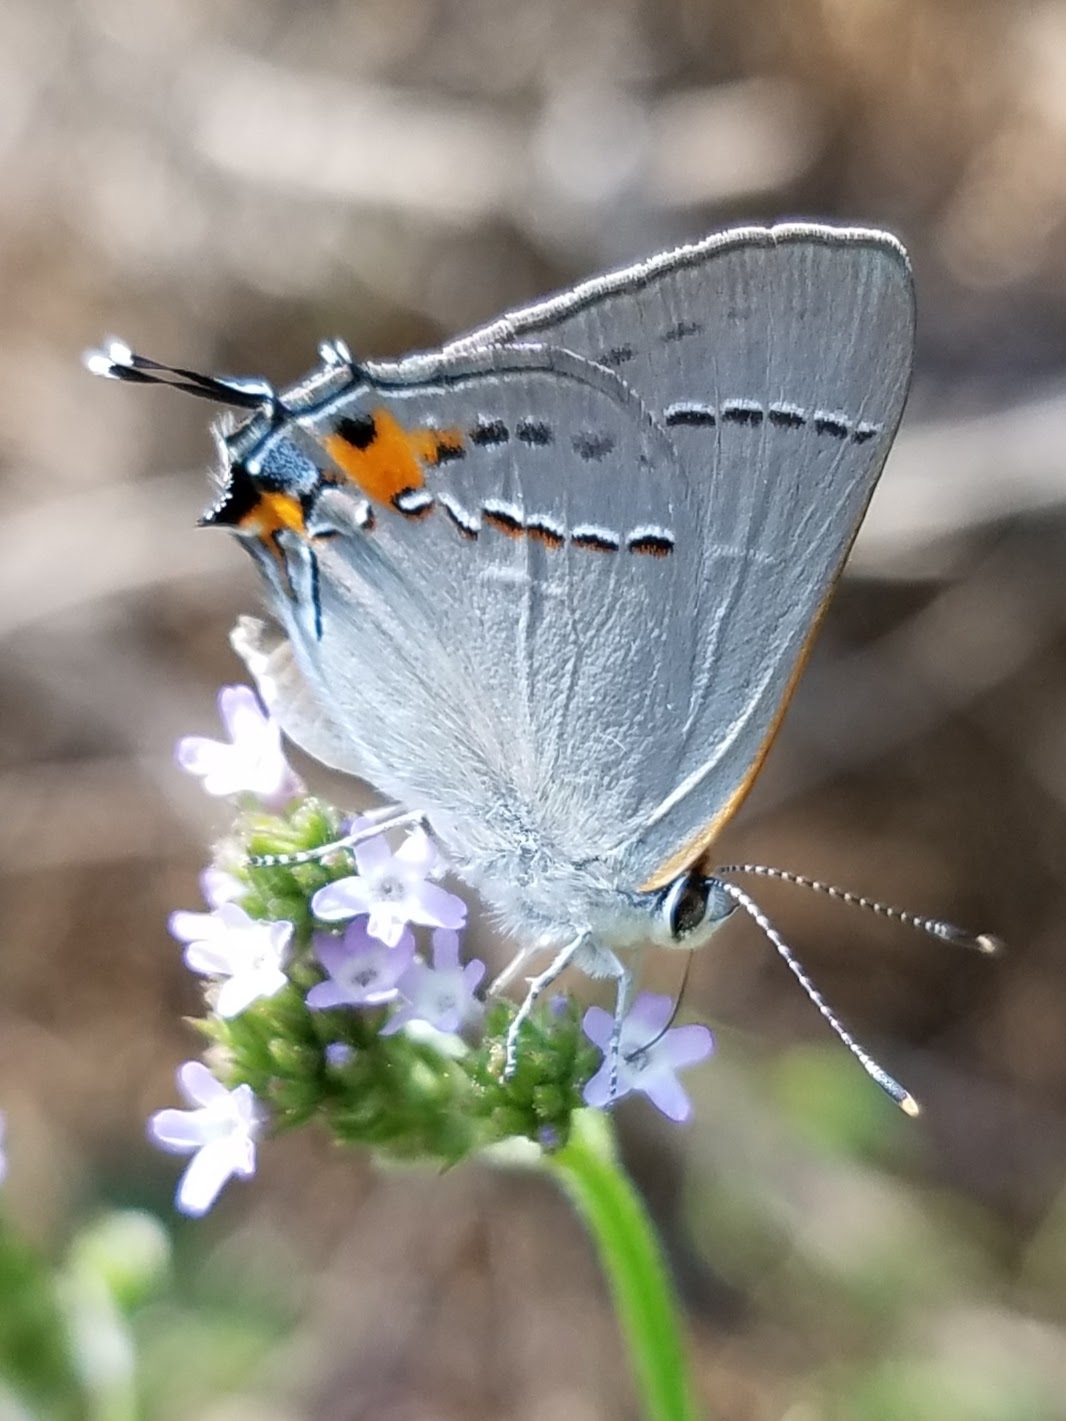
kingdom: Animalia
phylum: Arthropoda
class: Insecta
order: Lepidoptera
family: Lycaenidae
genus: Strymon
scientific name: Strymon melinus
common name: Gray hairstreak
